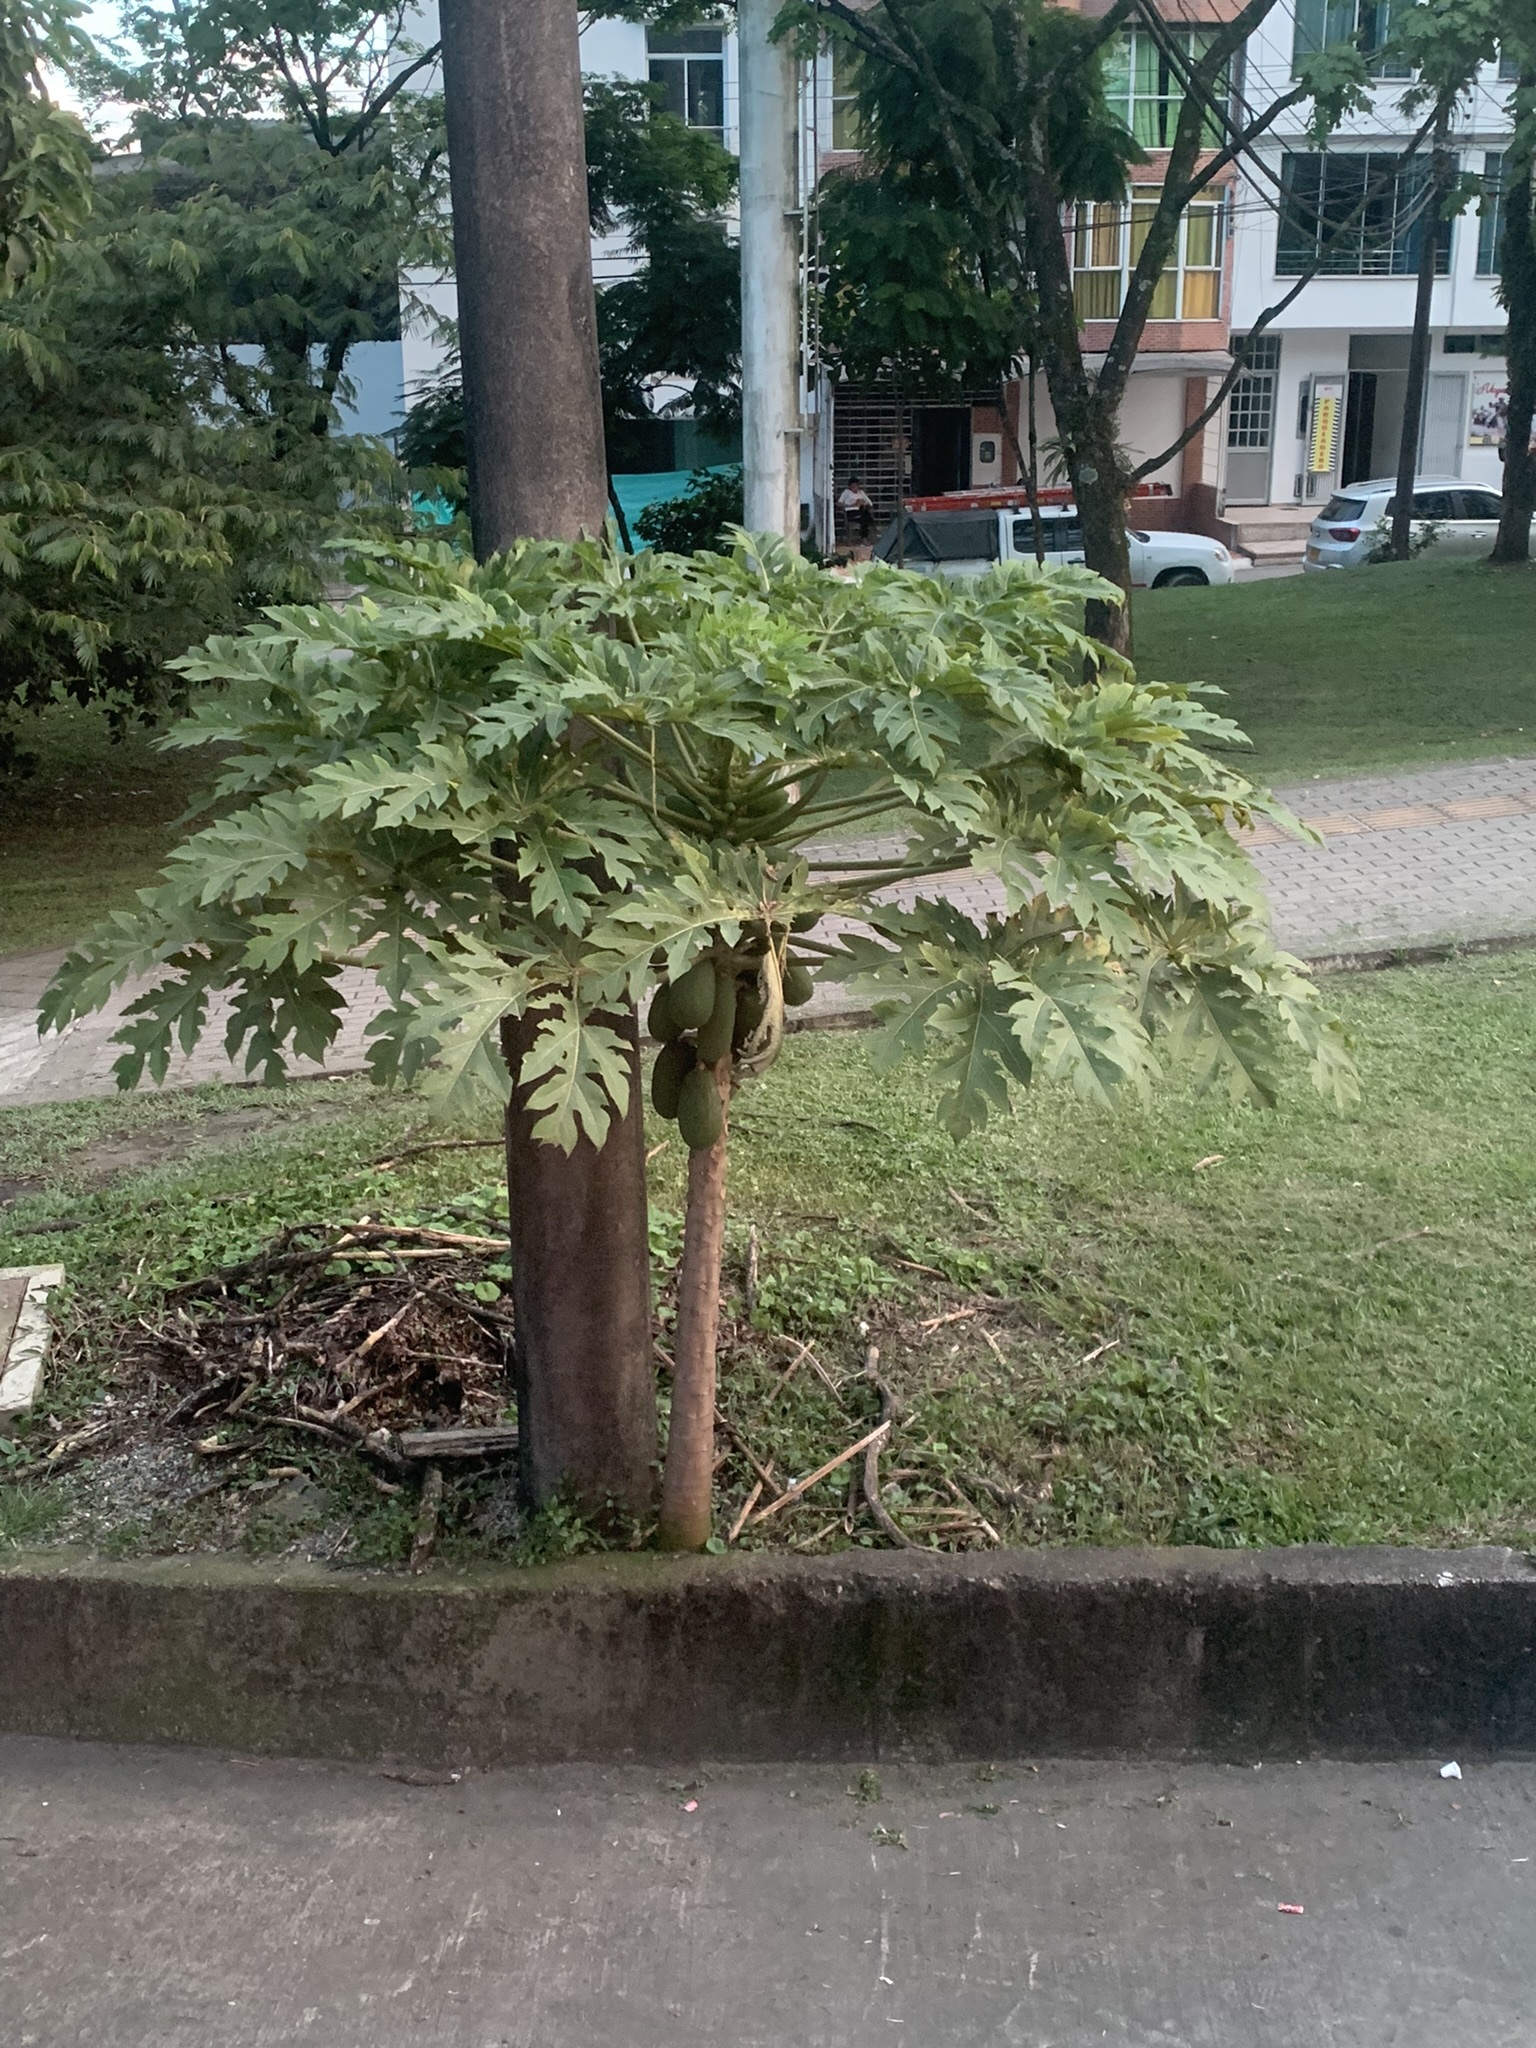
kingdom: Plantae
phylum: Tracheophyta
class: Magnoliopsida
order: Brassicales
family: Caricaceae
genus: Carica
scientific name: Carica papaya
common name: Papaya
